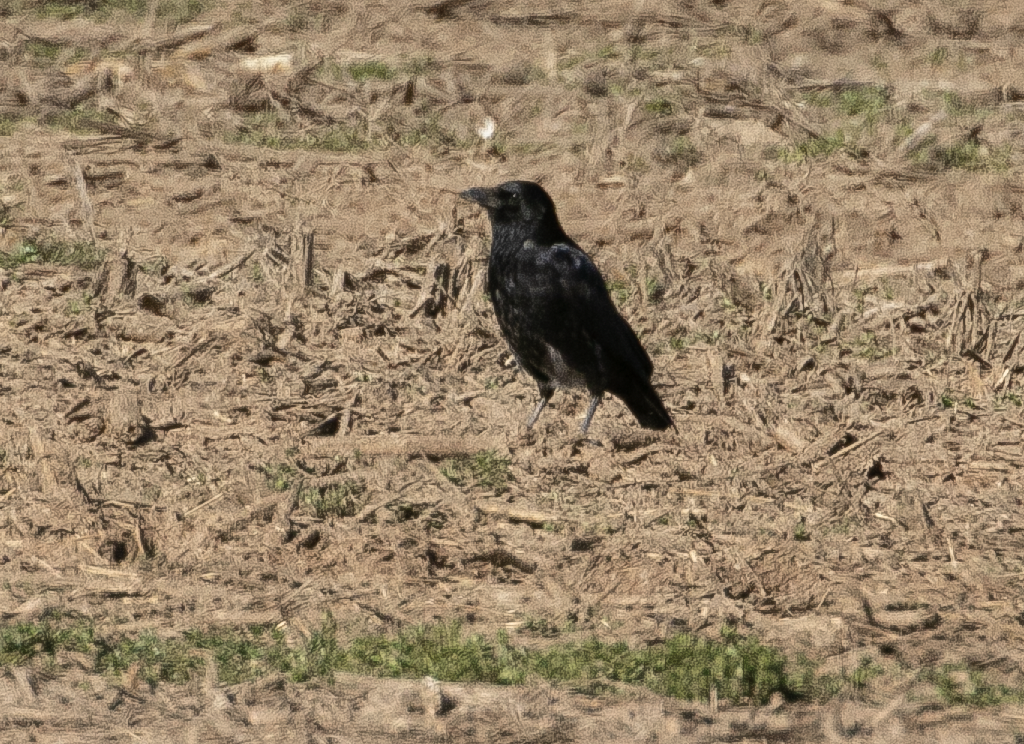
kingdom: Animalia
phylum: Chordata
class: Aves
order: Passeriformes
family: Corvidae
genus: Corvus
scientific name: Corvus
